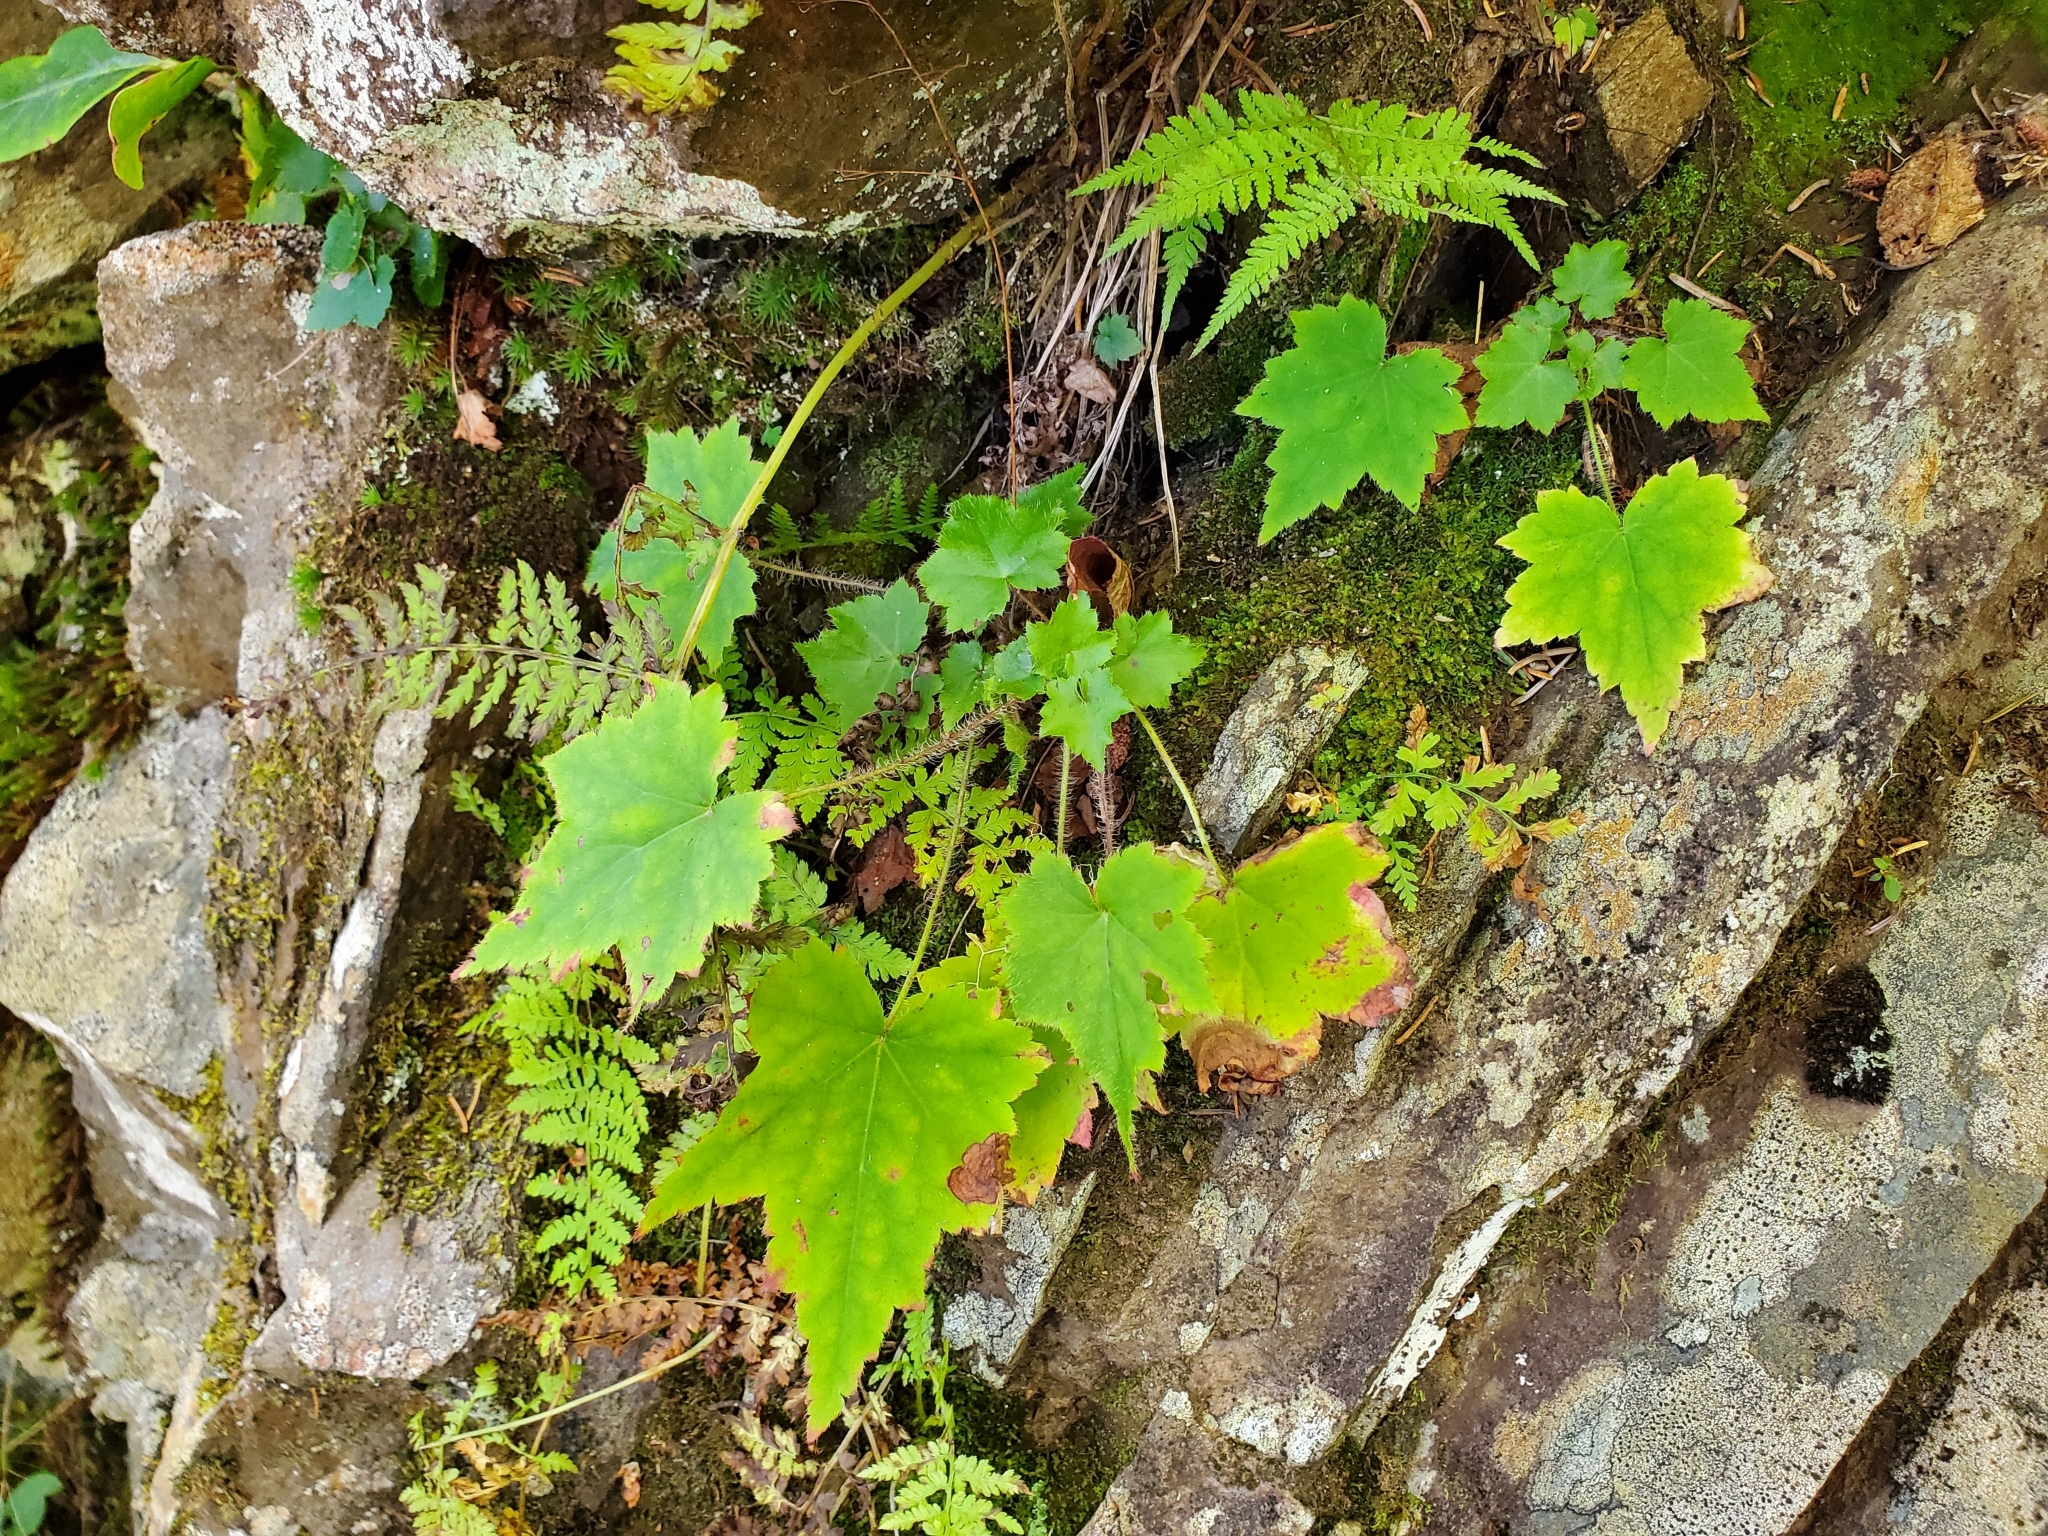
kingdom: Plantae
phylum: Tracheophyta
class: Magnoliopsida
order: Saxifragales
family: Saxifragaceae
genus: Heuchera
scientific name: Heuchera villosa
